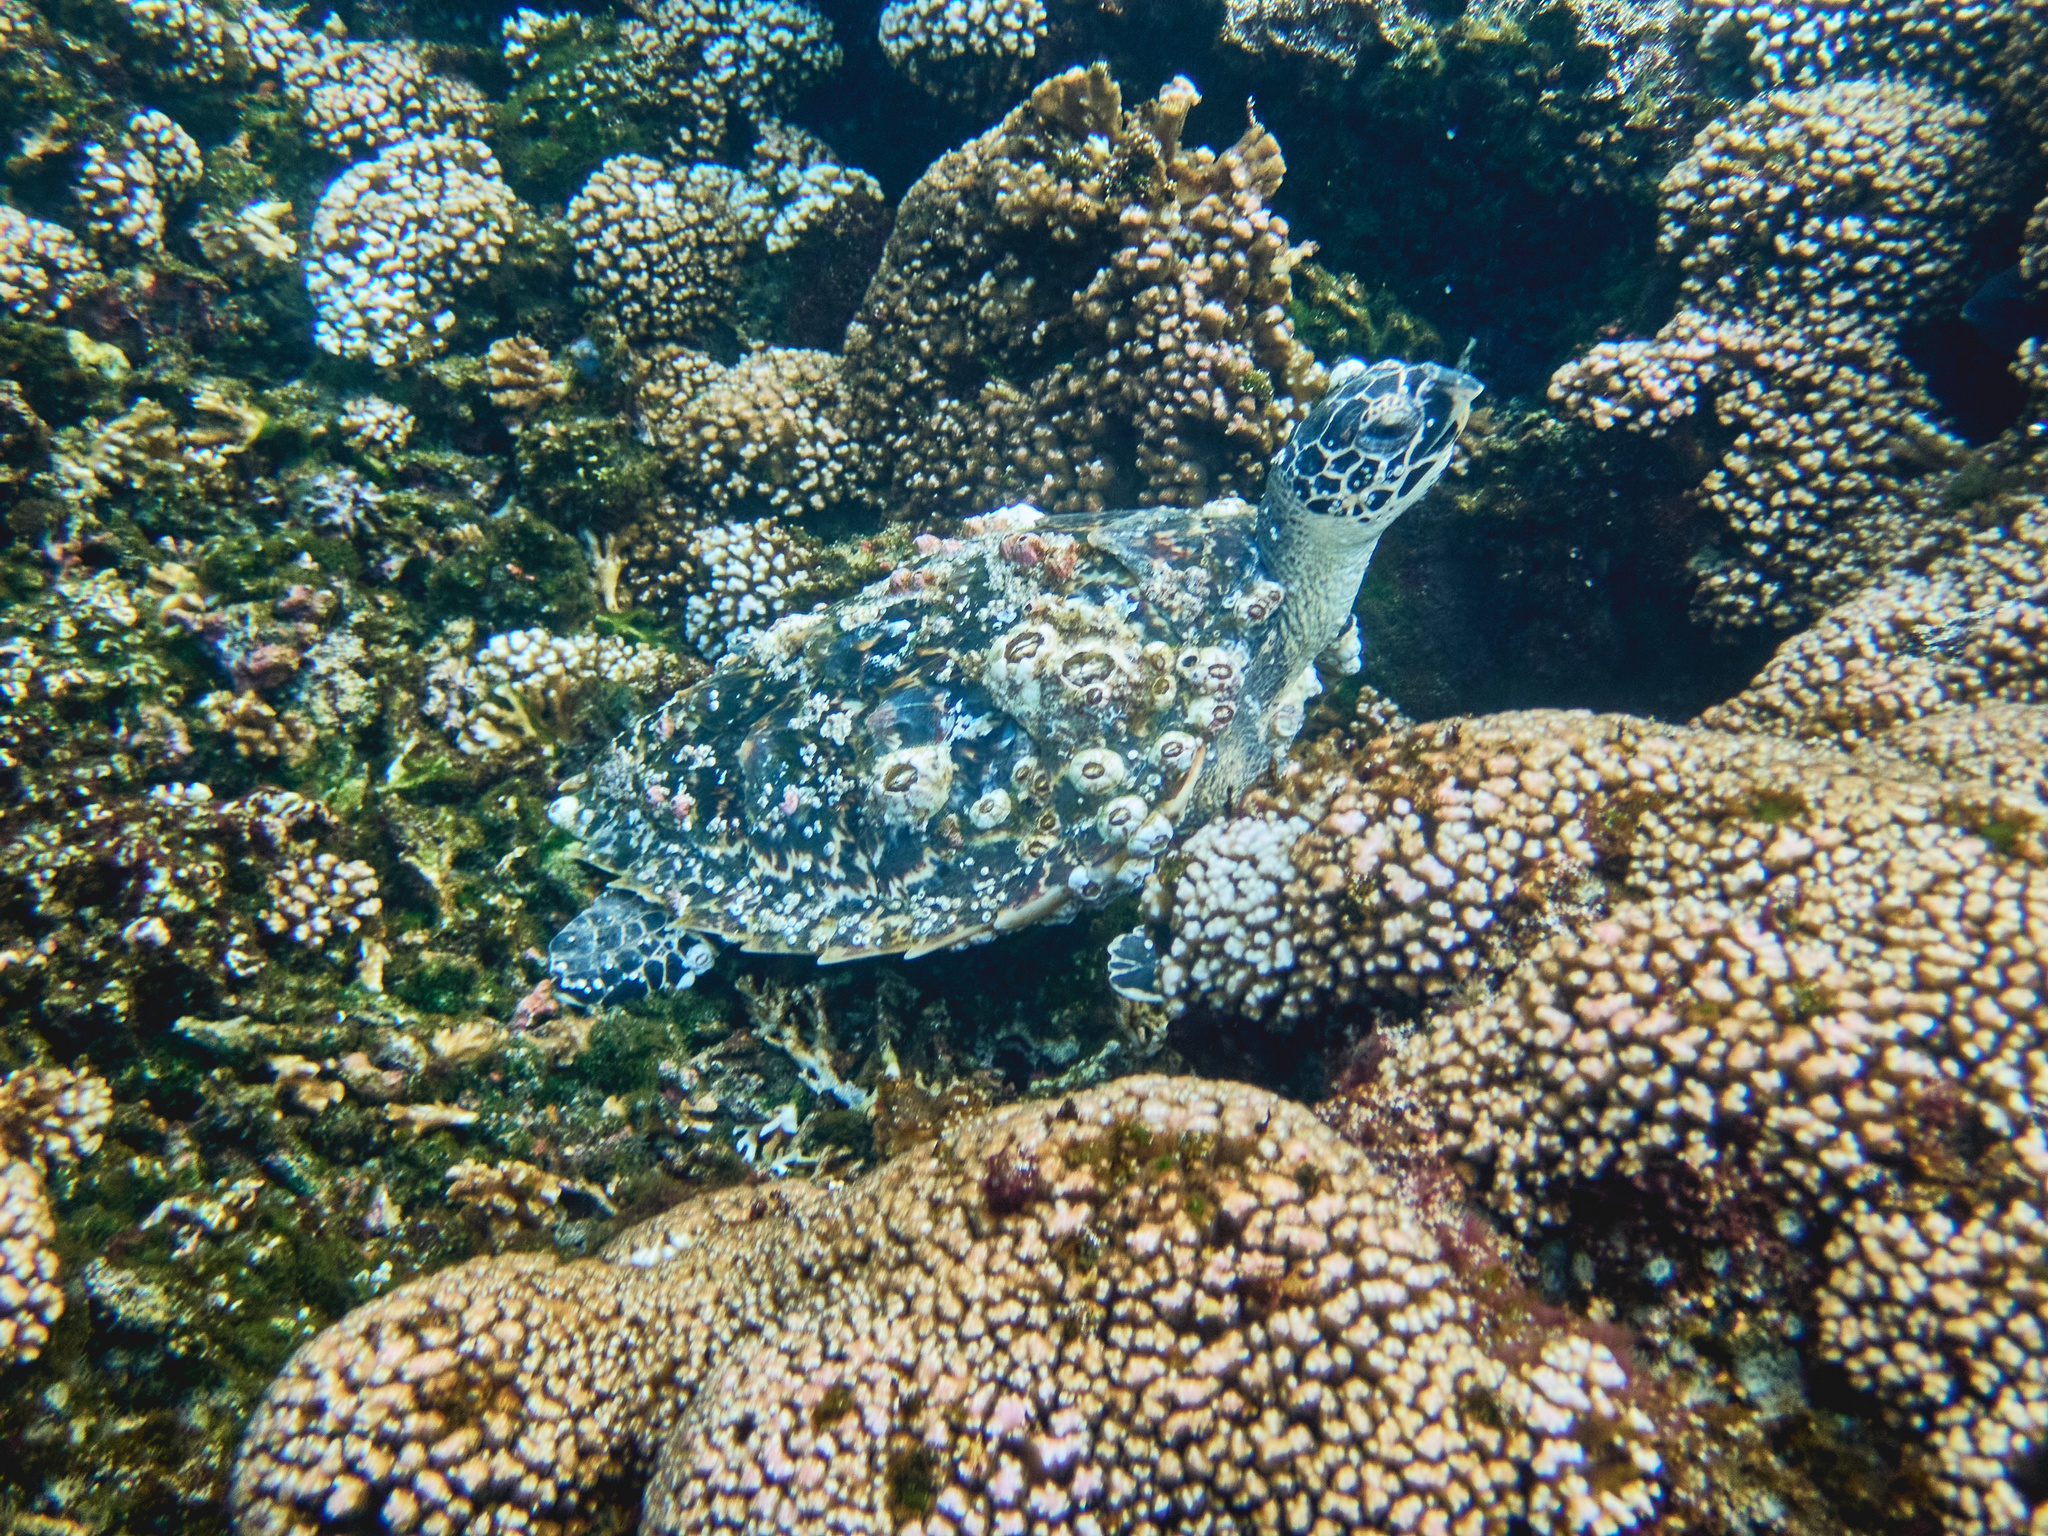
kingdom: Animalia
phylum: Chordata
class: Testudines
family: Cheloniidae
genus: Eretmochelys
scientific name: Eretmochelys imbricata
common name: Hawksbill turtle
